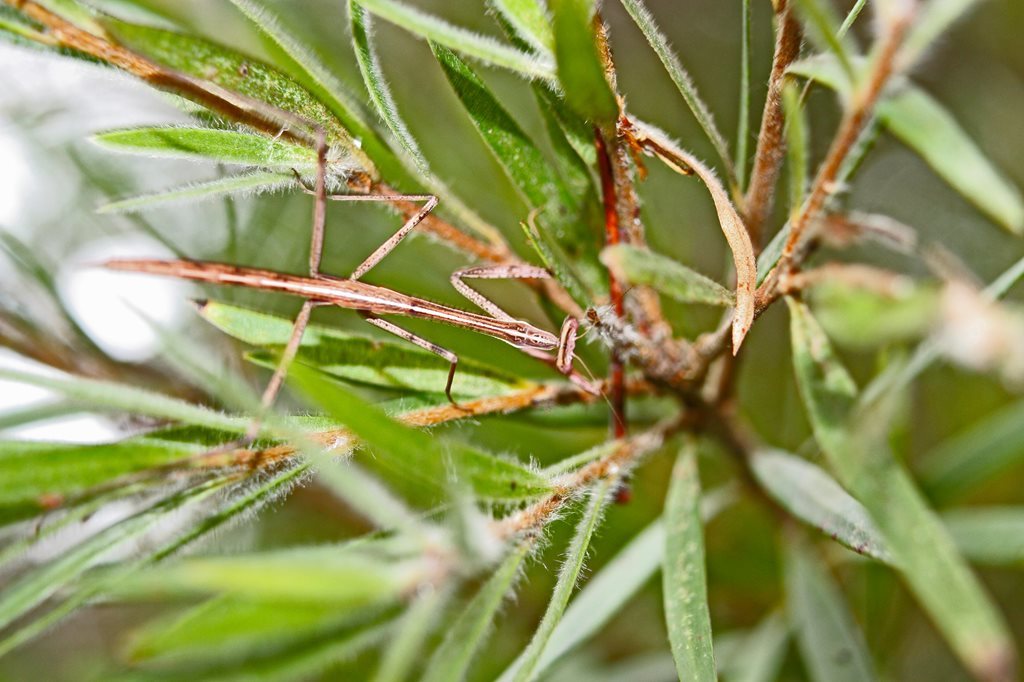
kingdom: Animalia
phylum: Arthropoda
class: Insecta
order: Mantodea
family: Mantidae
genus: Archimantis
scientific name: Archimantis latistyla
